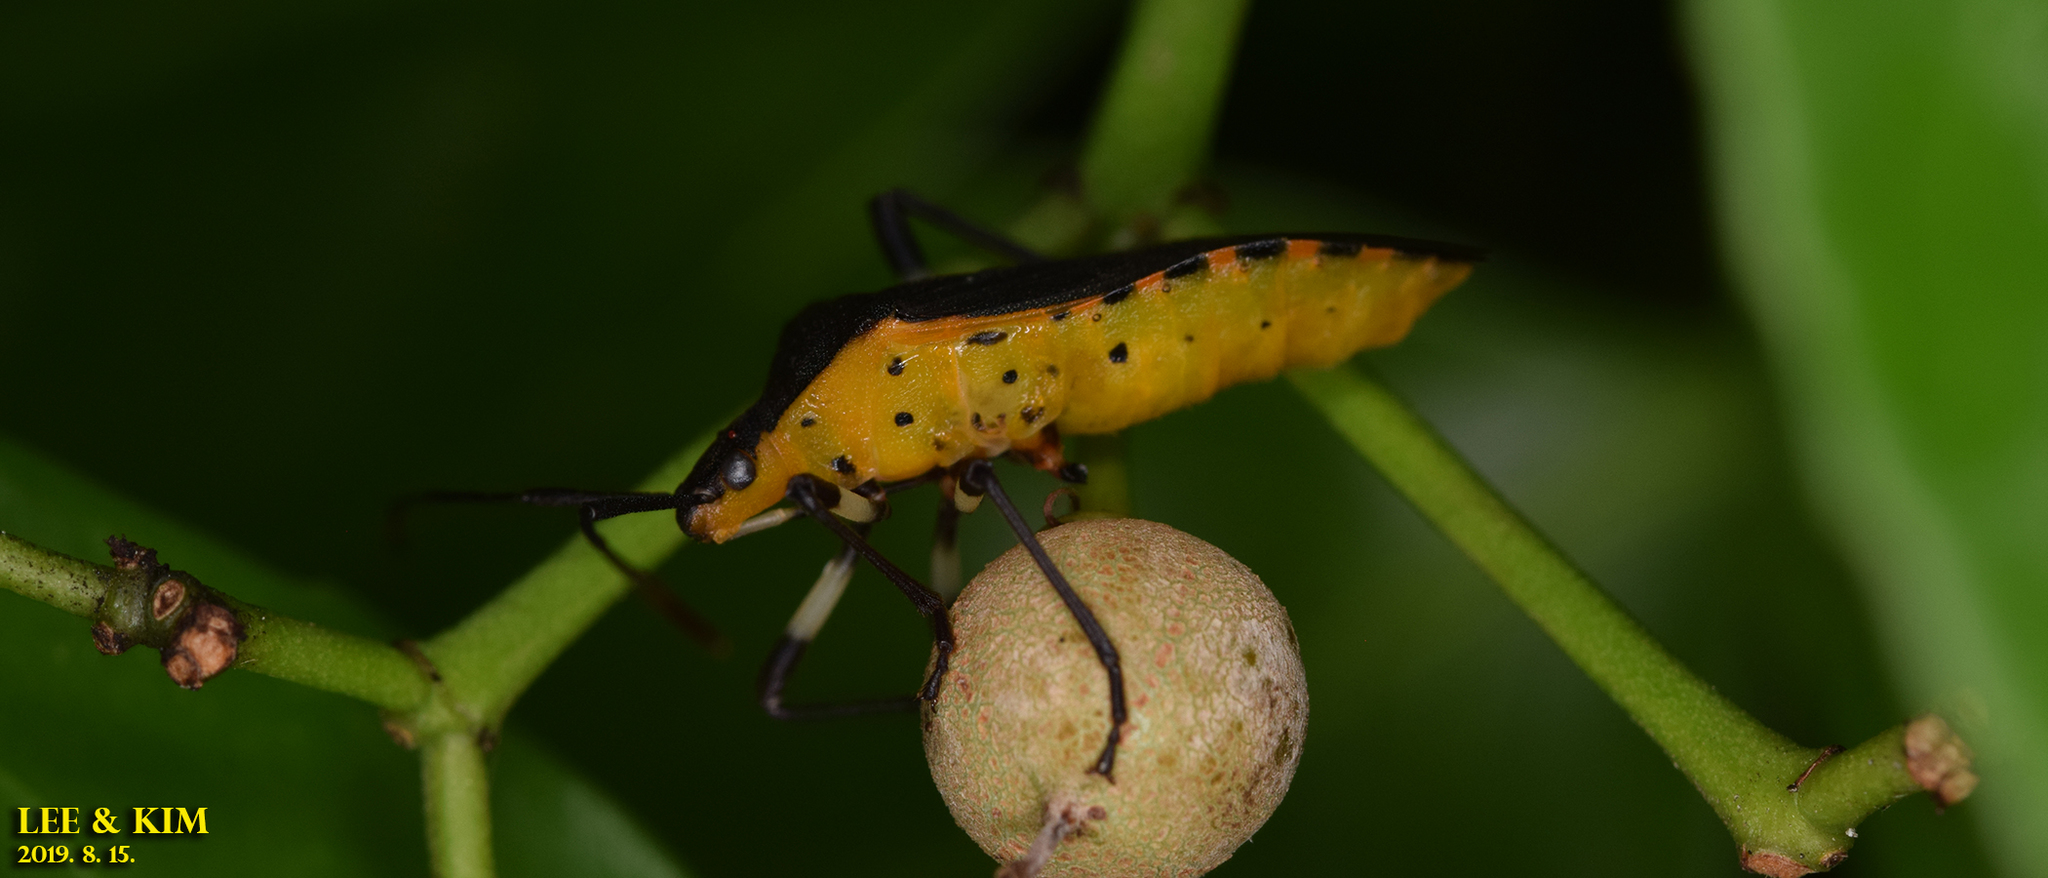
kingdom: Animalia
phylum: Arthropoda
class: Insecta
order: Hemiptera
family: Coreidae
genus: Plinachtus
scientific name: Plinachtus bicoloripes
